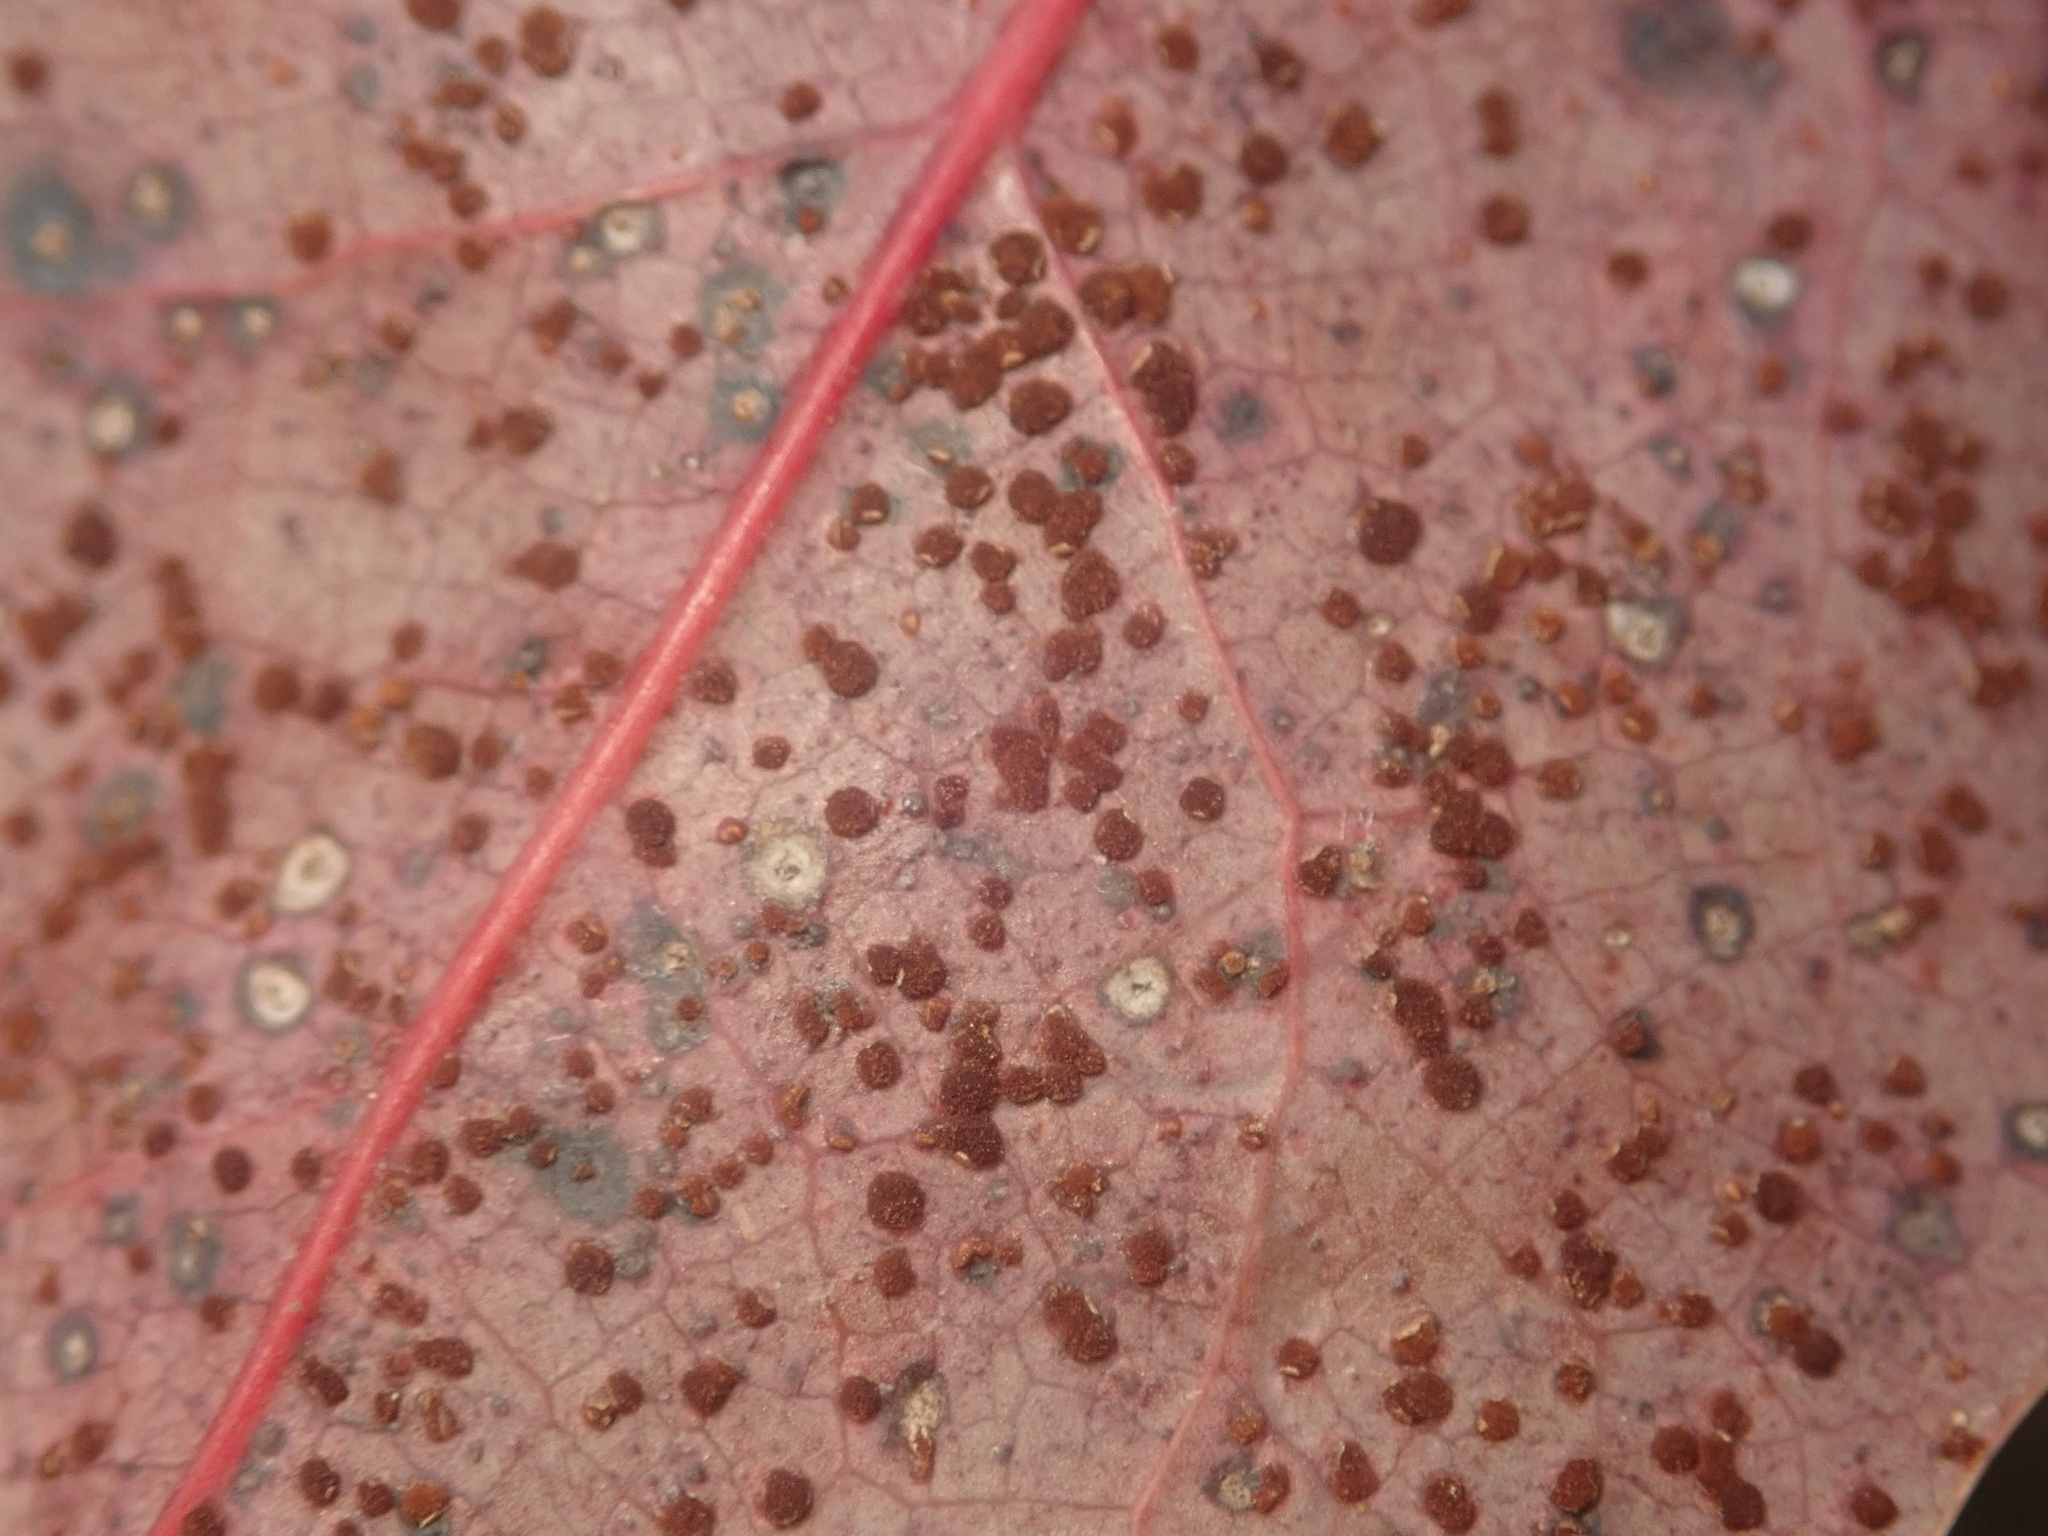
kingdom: Fungi
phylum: Basidiomycota
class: Pucciniomycetes
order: Pucciniales
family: Pucciniaceae
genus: Cumminsiella
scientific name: Cumminsiella mirabilissima
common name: Mahonia rust
